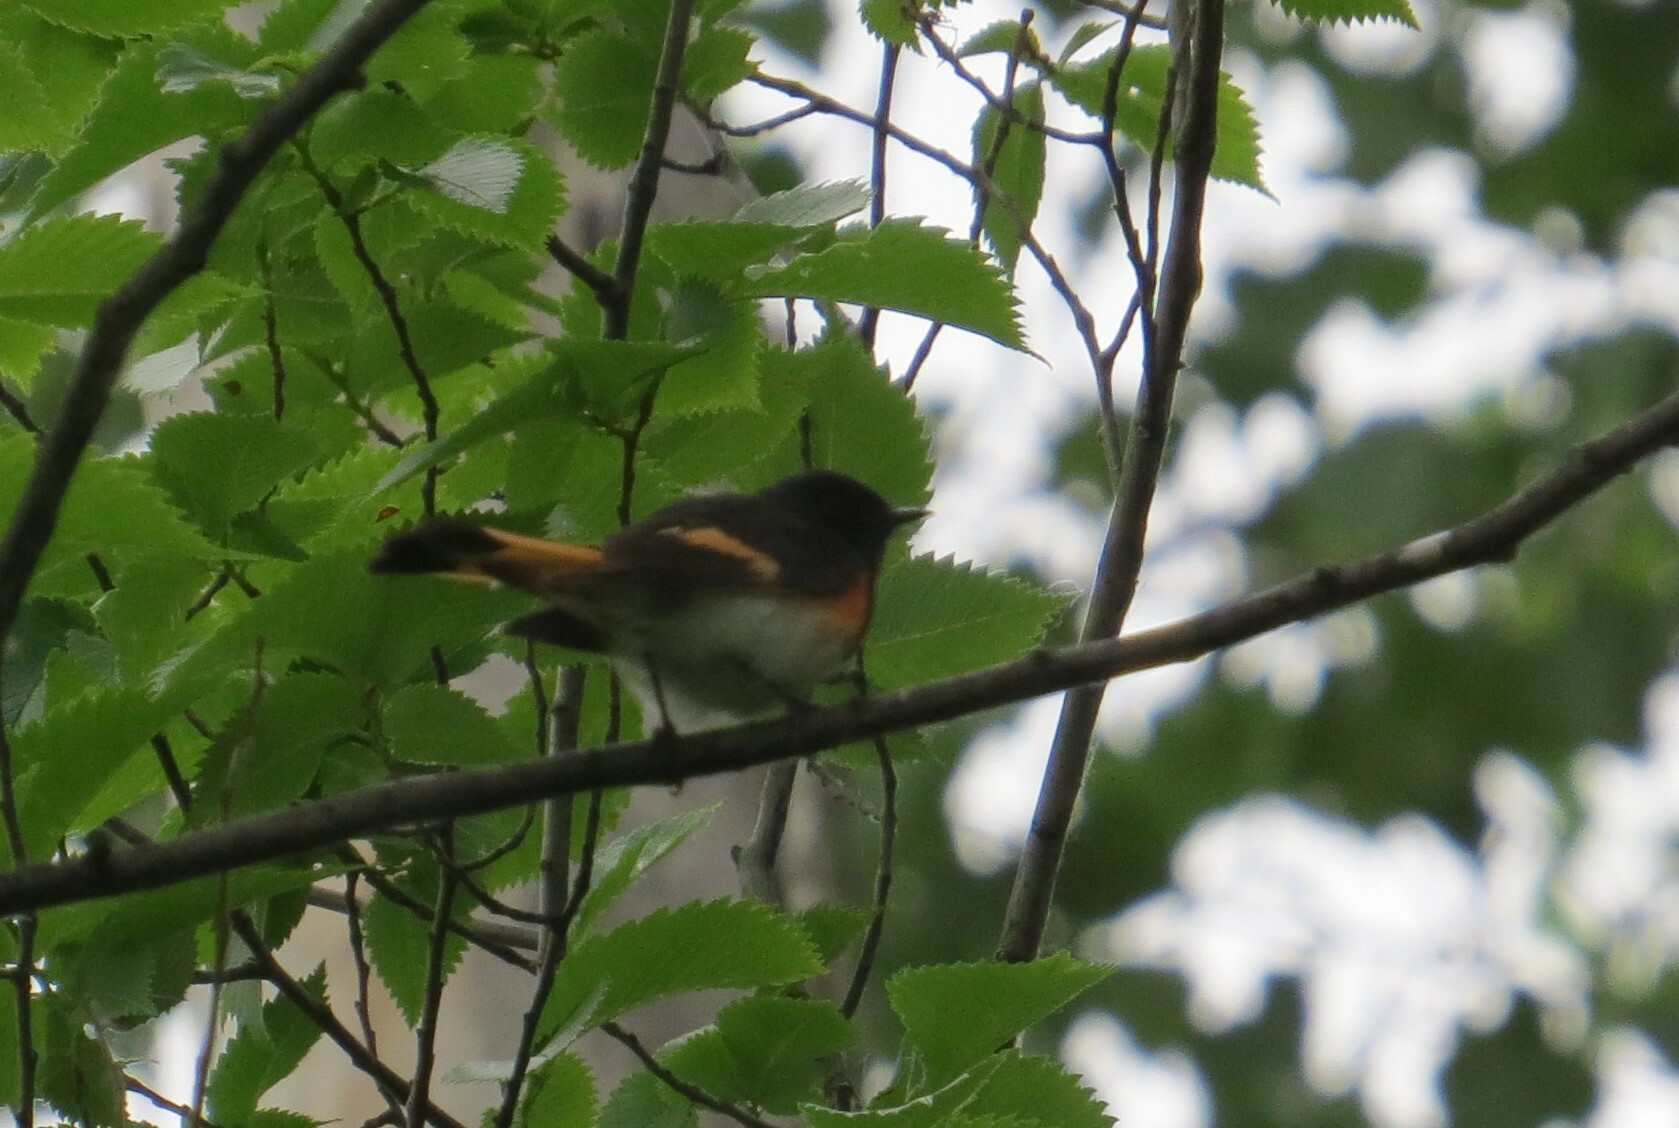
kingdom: Animalia
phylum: Chordata
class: Aves
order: Passeriformes
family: Parulidae
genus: Setophaga
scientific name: Setophaga ruticilla
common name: American redstart
